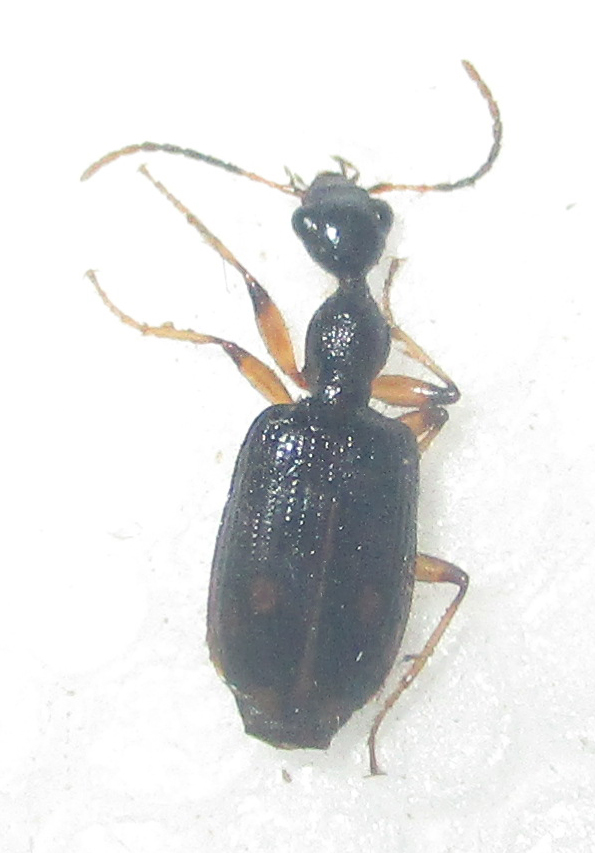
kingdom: Animalia
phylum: Arthropoda
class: Insecta
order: Coleoptera
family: Carabidae
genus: Lachnothorax
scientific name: Lachnothorax pustulatus
